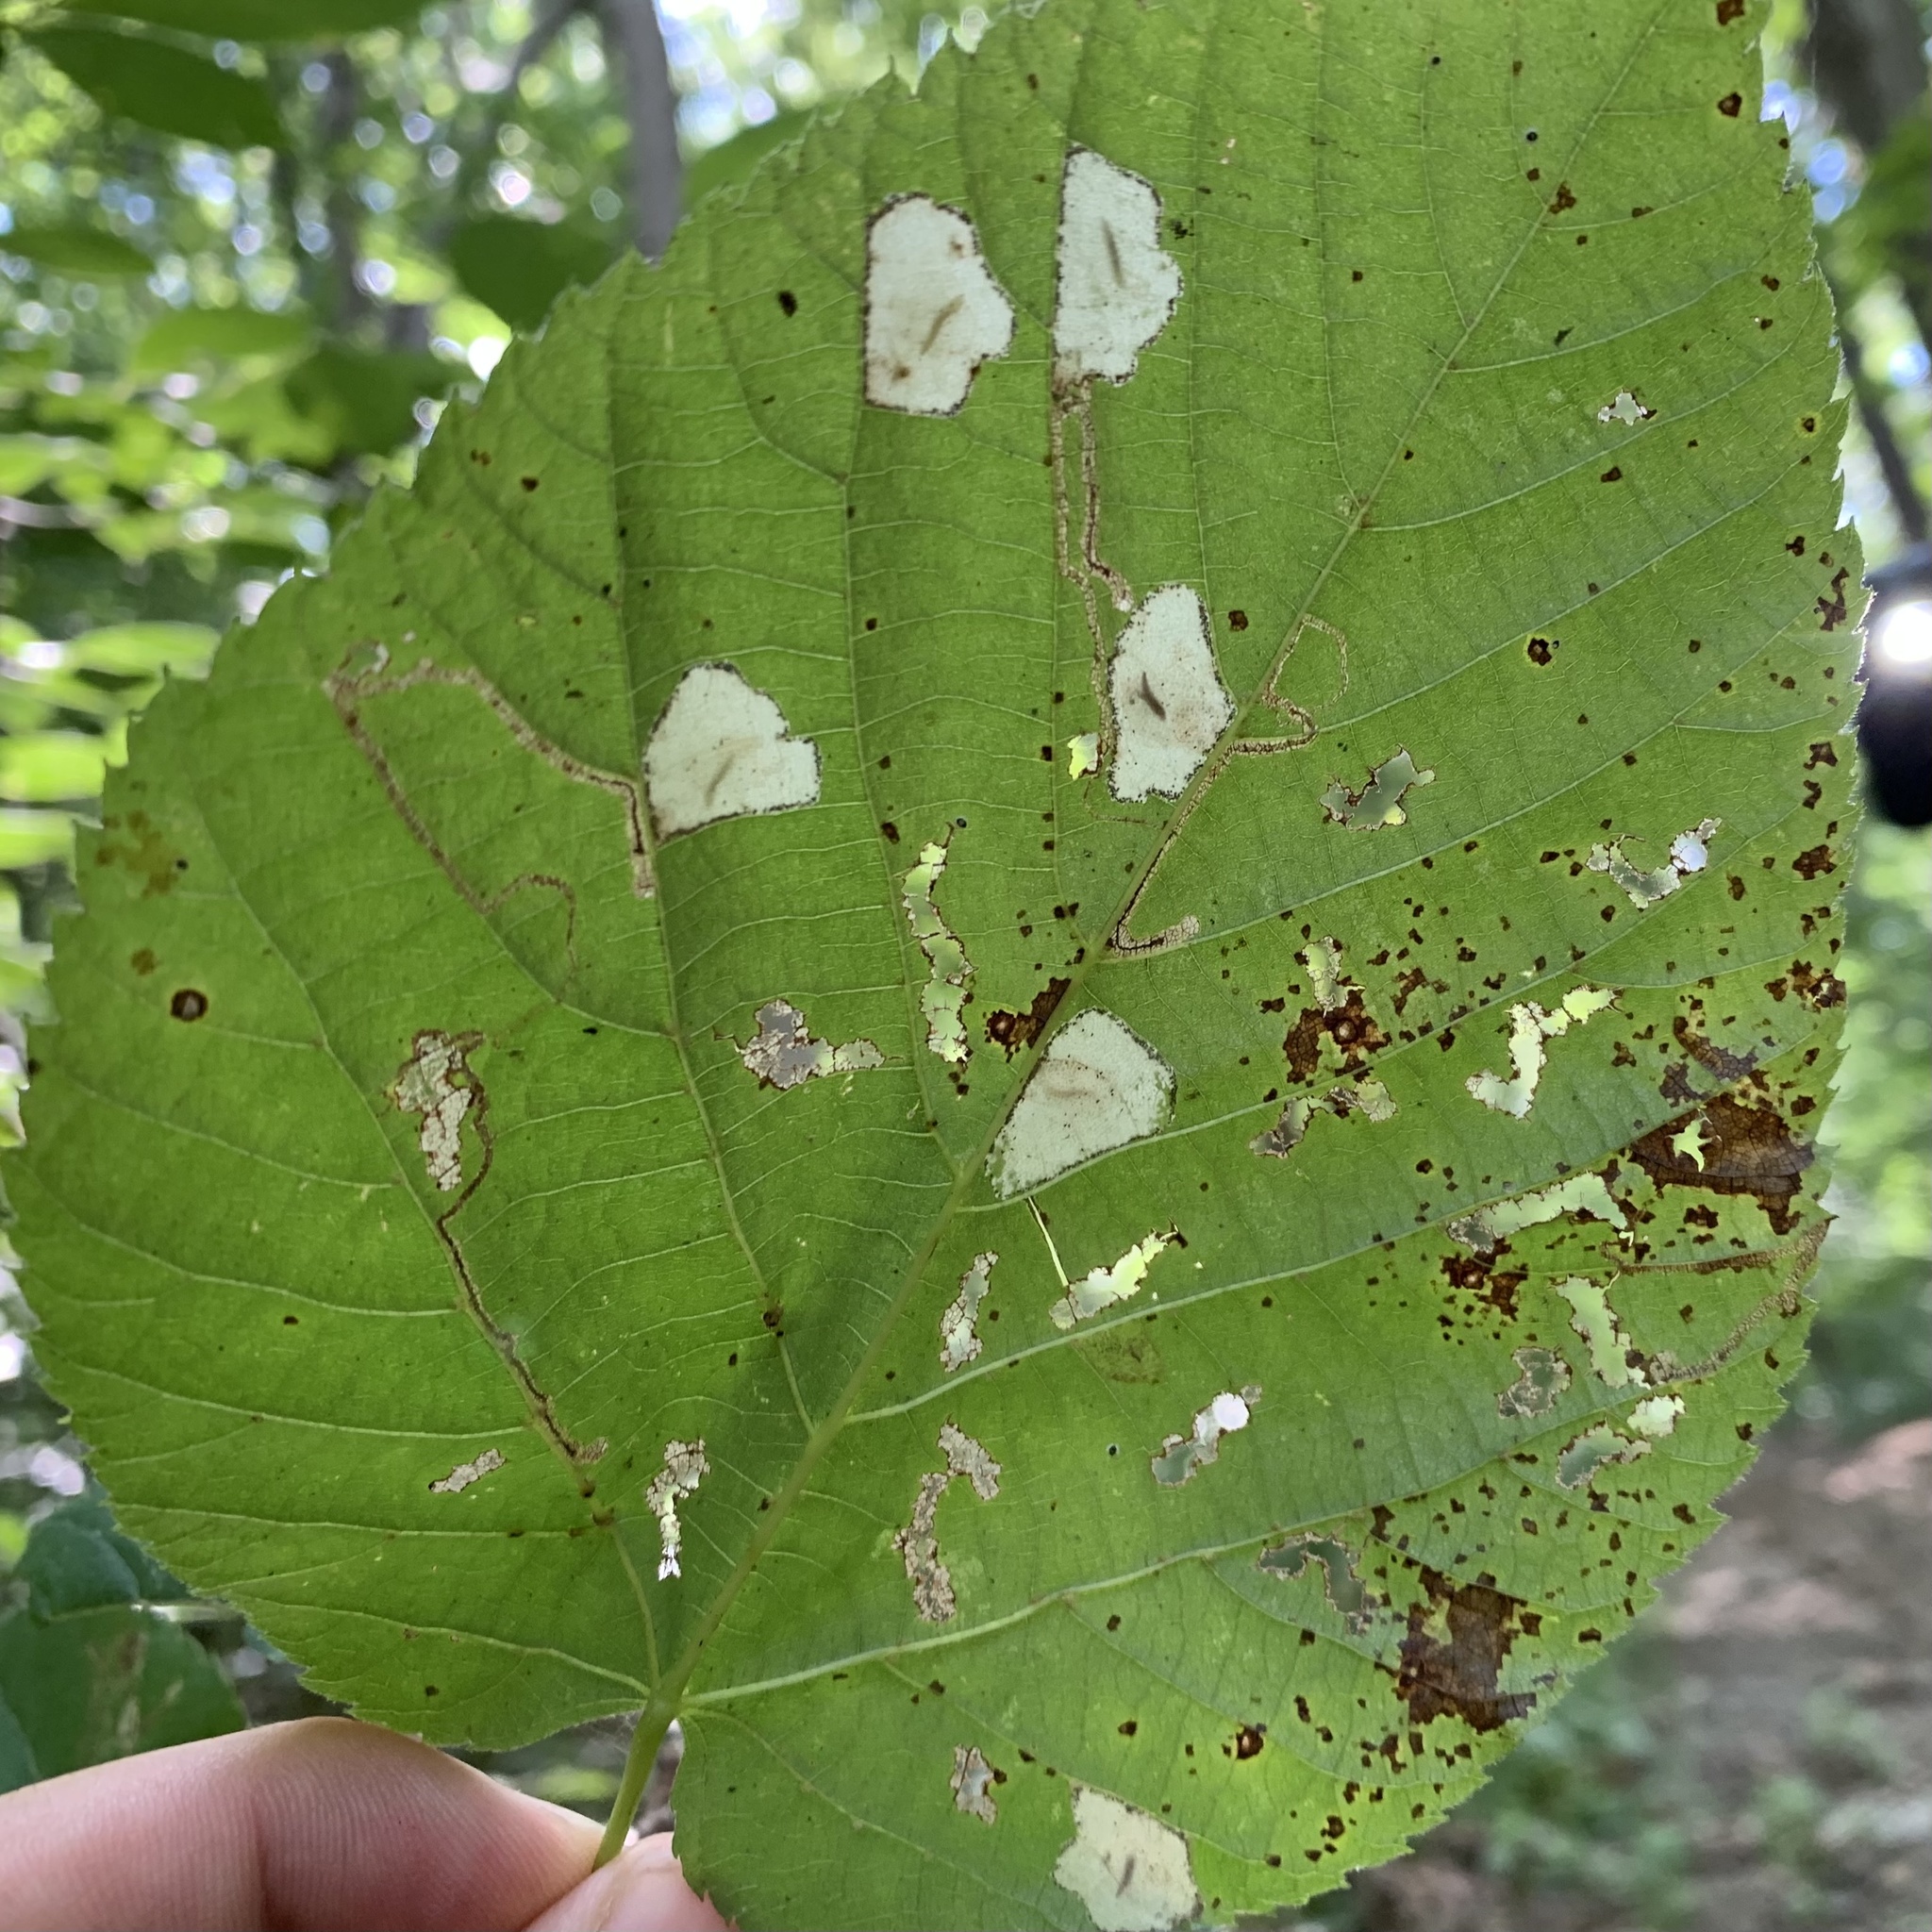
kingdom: Animalia
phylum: Arthropoda
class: Insecta
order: Lepidoptera
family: Nepticulidae
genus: Stigmella
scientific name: Stigmella tiliella
